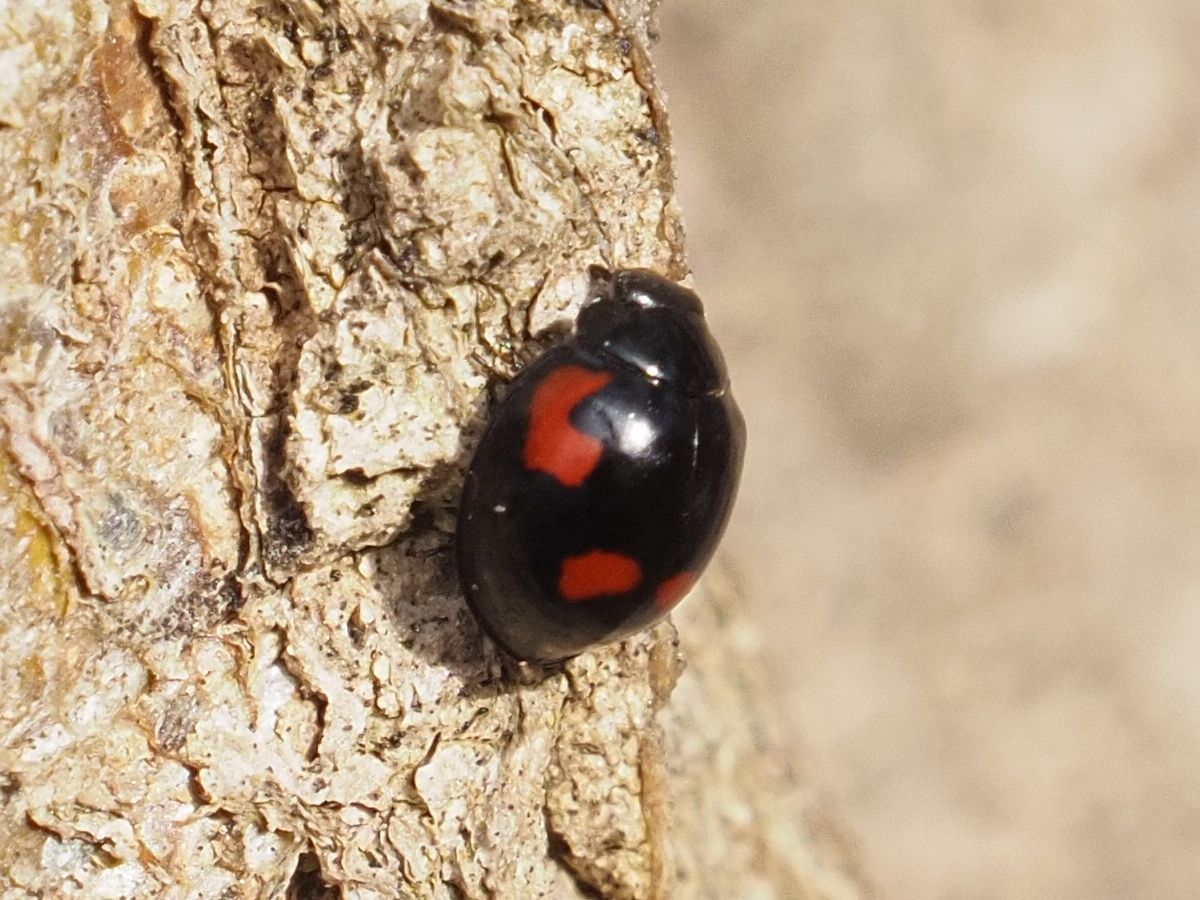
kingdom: Animalia
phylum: Arthropoda
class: Insecta
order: Coleoptera
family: Coccinellidae
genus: Brumus
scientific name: Brumus quadripustulatus
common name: Ladybird beetle
